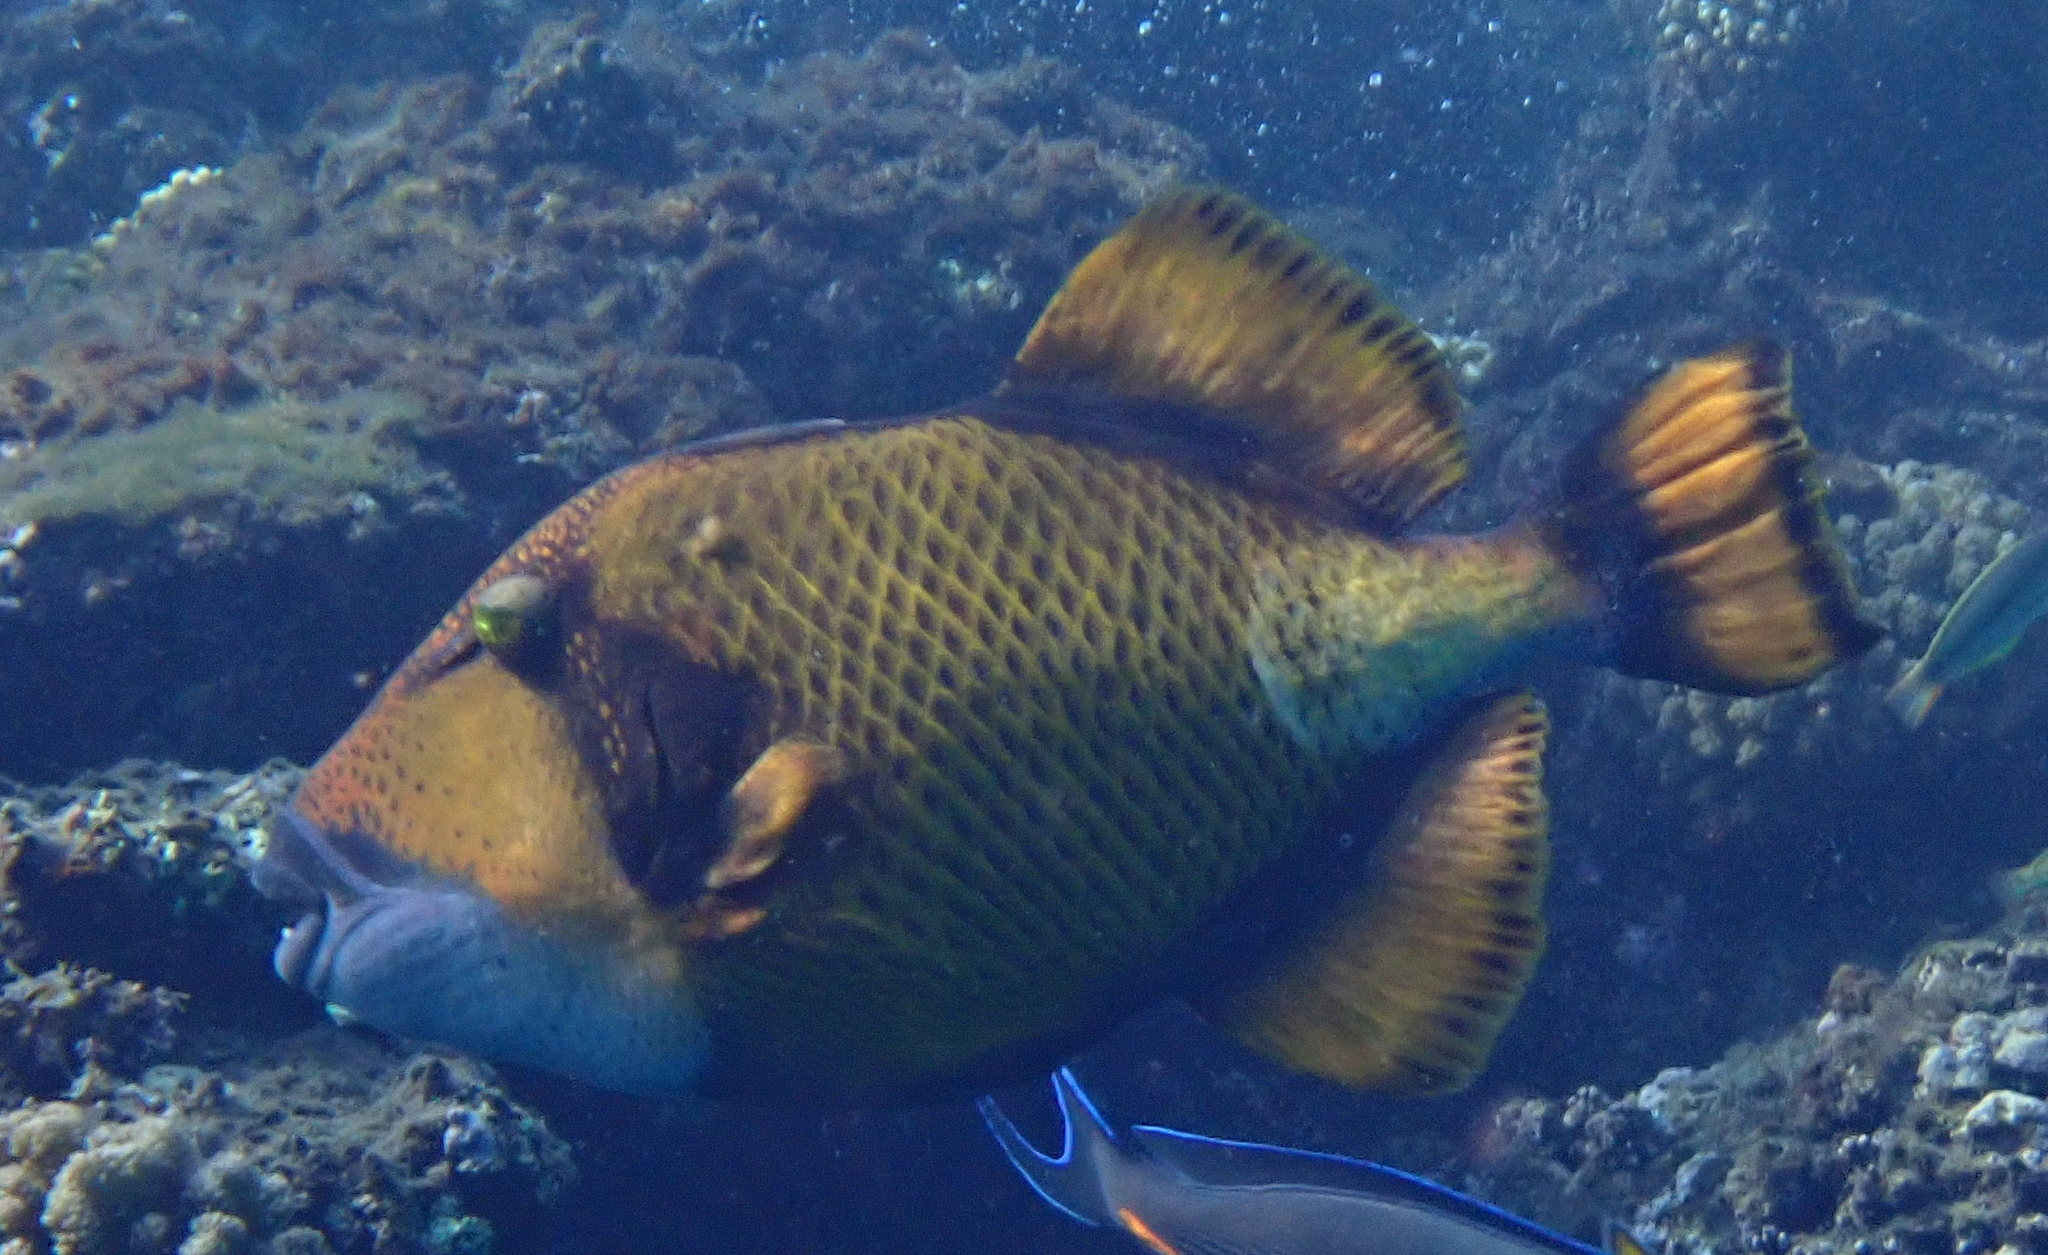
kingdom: Animalia
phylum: Chordata
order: Tetraodontiformes
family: Balistidae
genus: Balistoides
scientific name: Balistoides viridescens
